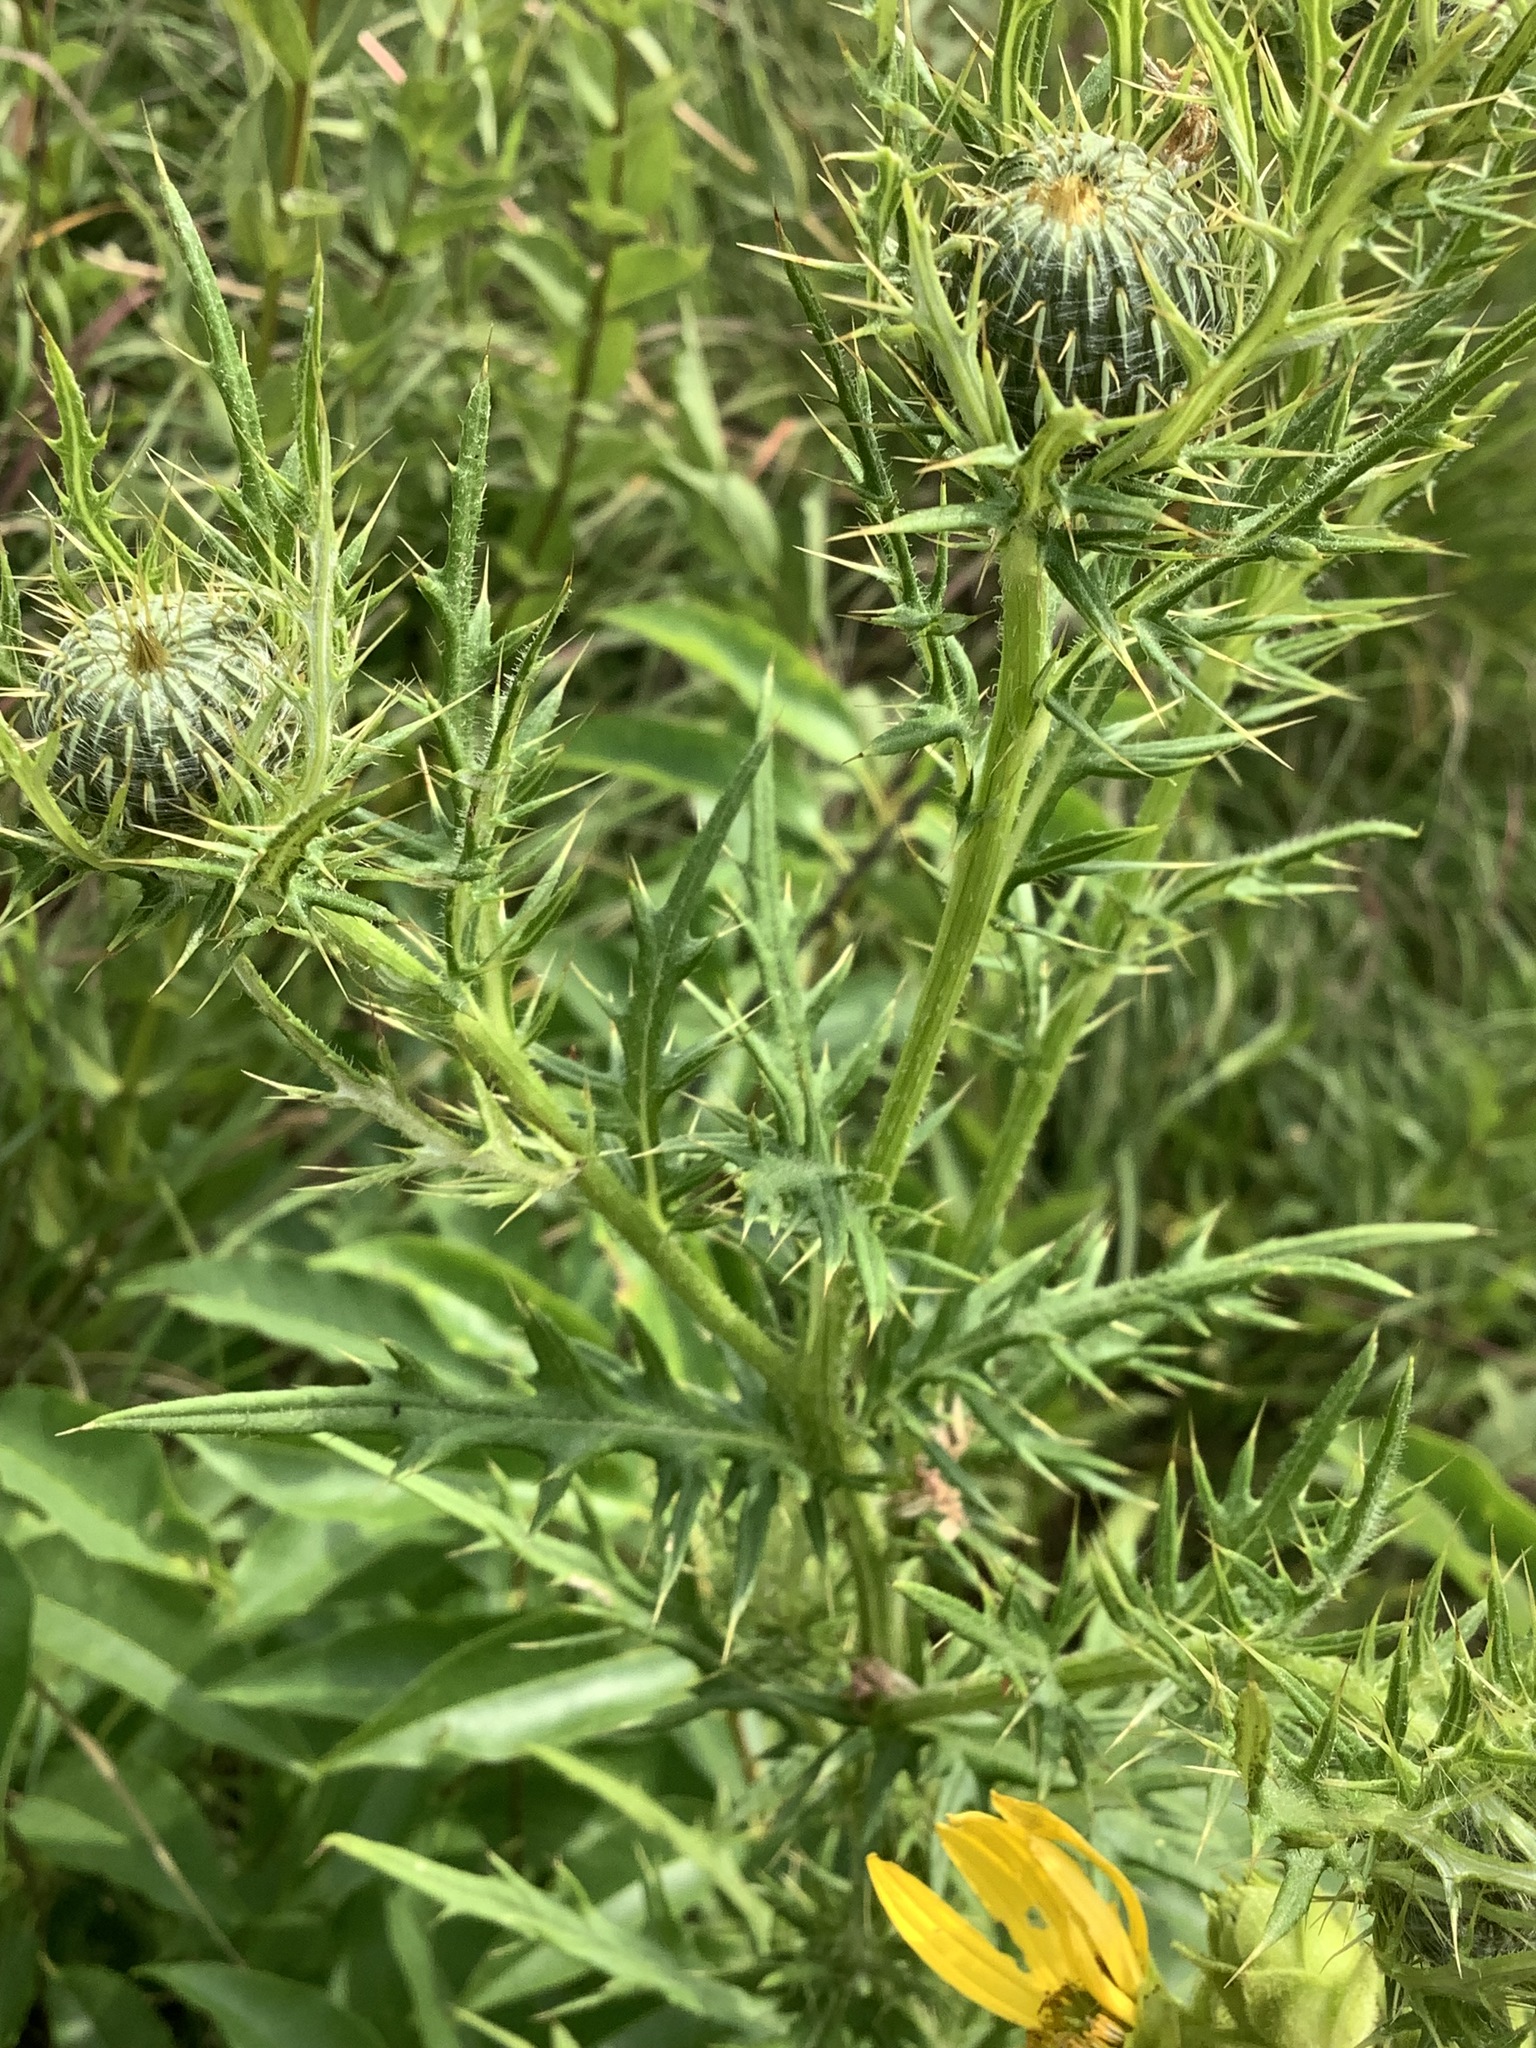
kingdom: Plantae
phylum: Tracheophyta
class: Magnoliopsida
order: Asterales
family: Asteraceae
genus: Cirsium
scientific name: Cirsium discolor
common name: Field thistle
